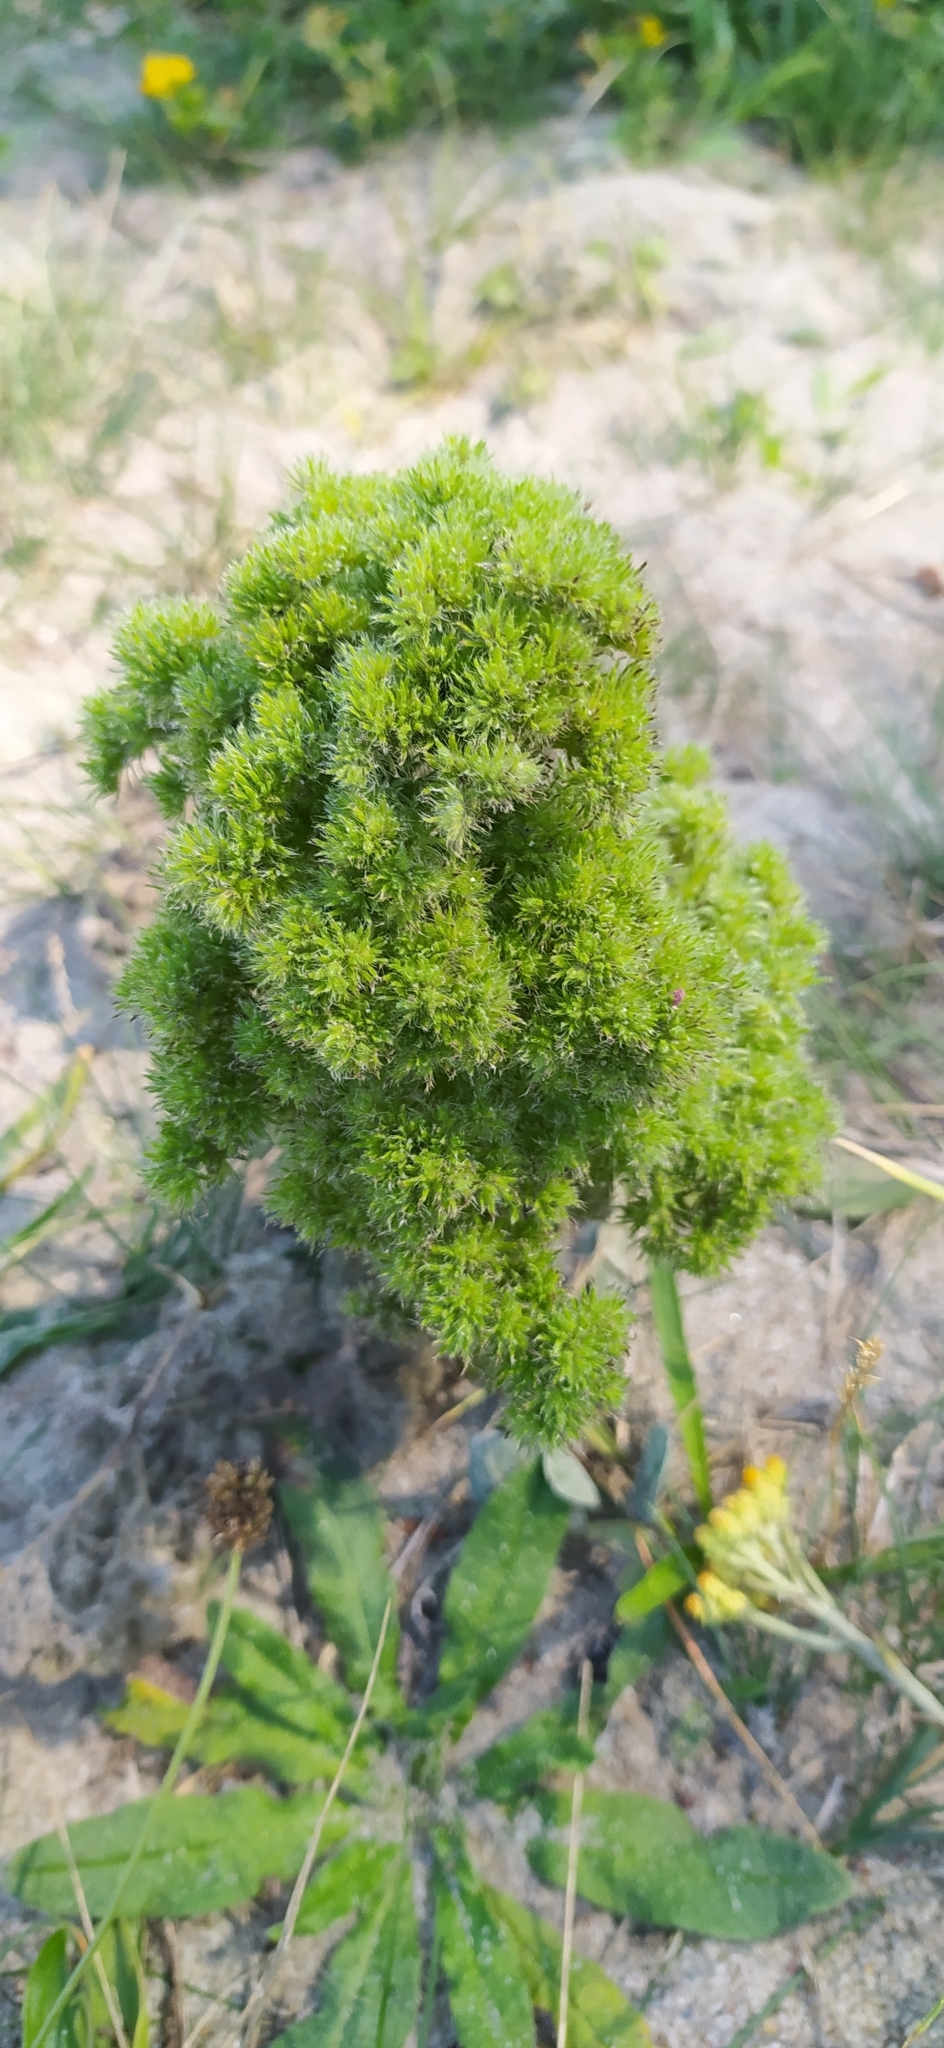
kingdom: Animalia
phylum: Arthropoda
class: Arachnida
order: Trombidiformes
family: Eriophyidae
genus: Aceria
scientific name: Aceria echii
